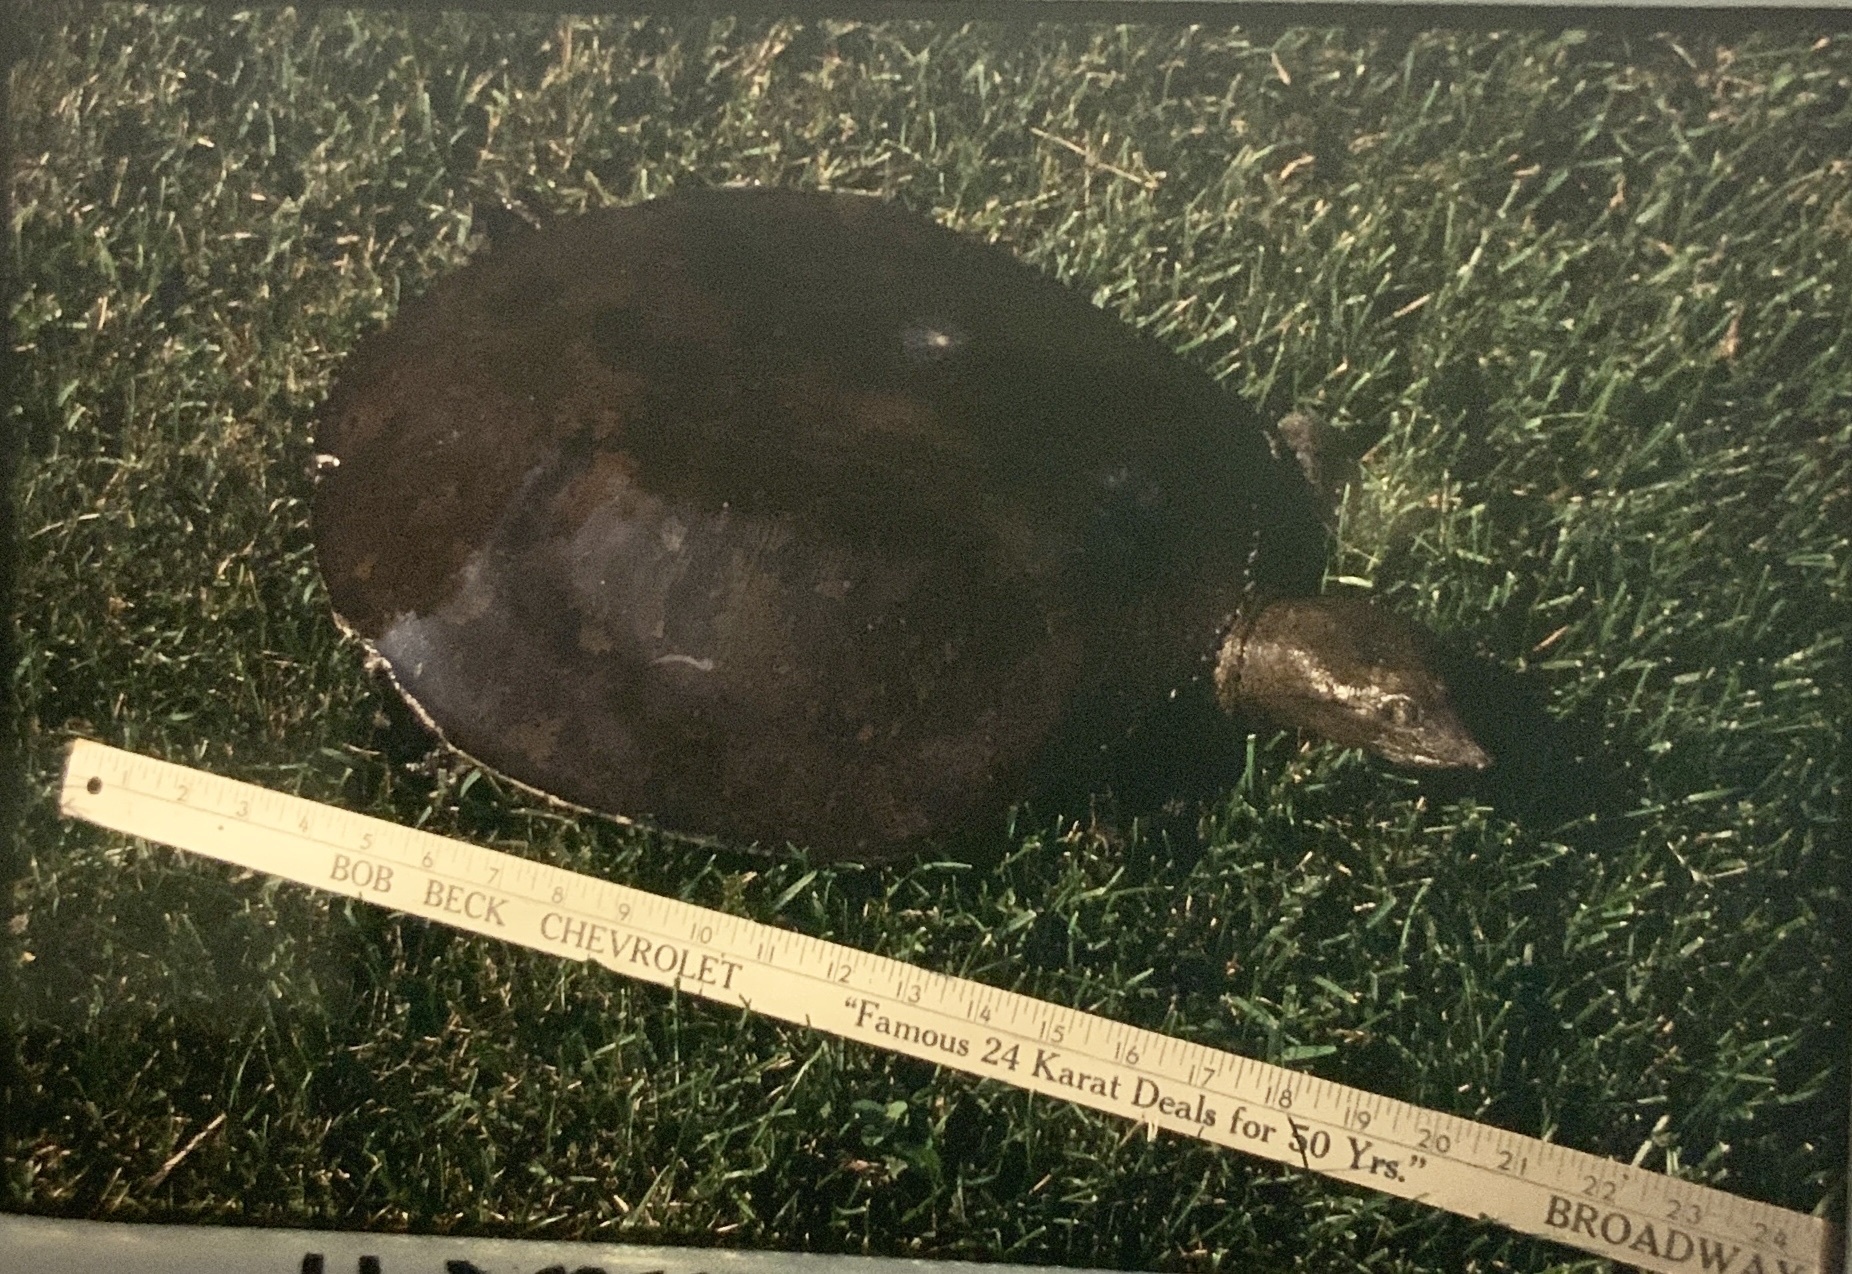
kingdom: Animalia
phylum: Chordata
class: Testudines
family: Trionychidae
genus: Apalone
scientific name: Apalone spinifera
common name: Spiny softshell turtle
